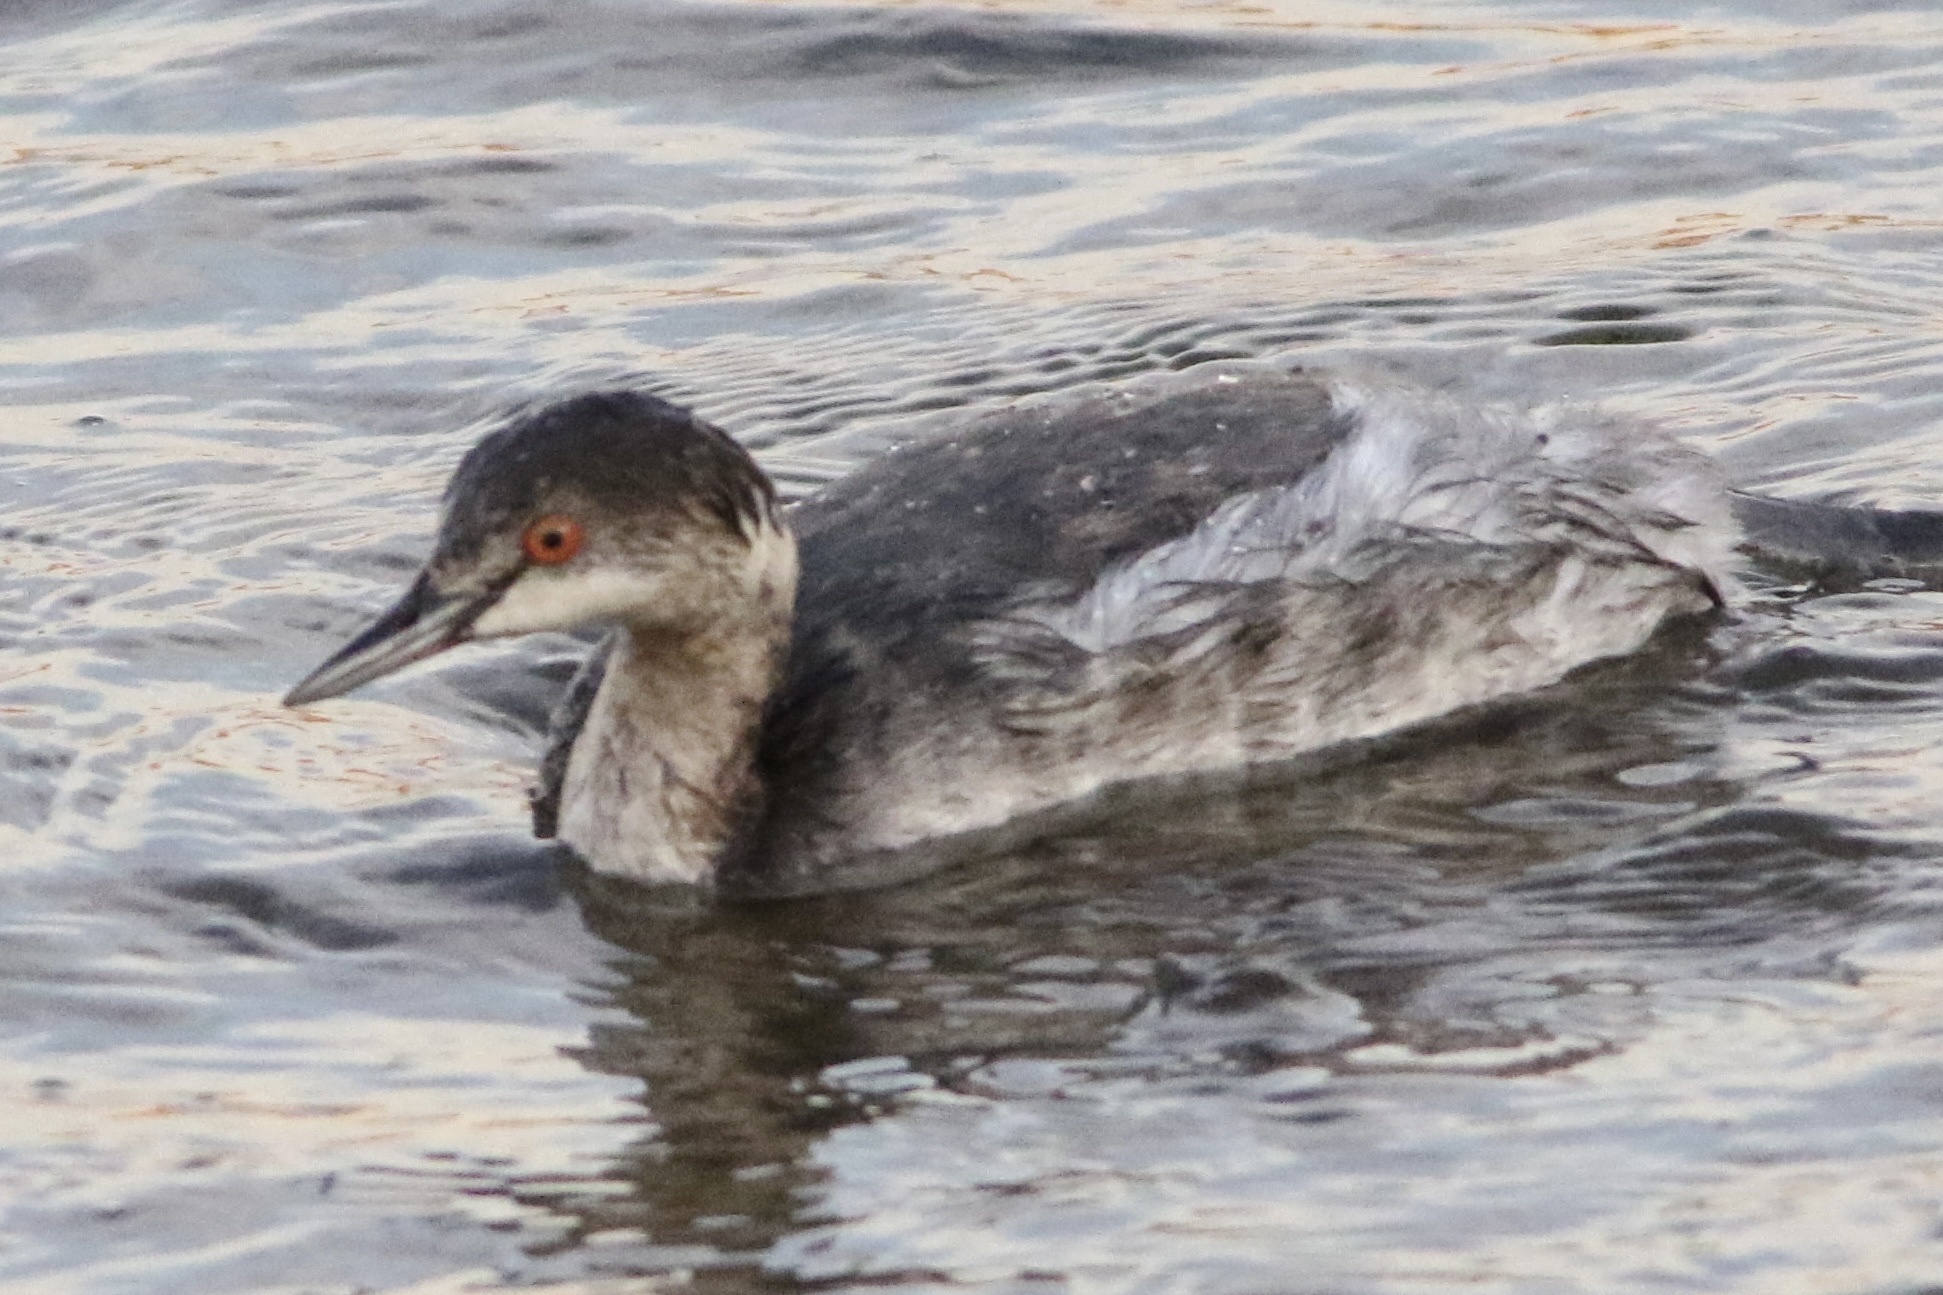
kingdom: Animalia
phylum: Chordata
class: Aves
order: Podicipediformes
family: Podicipedidae
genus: Podiceps
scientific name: Podiceps nigricollis
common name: Black-necked grebe
